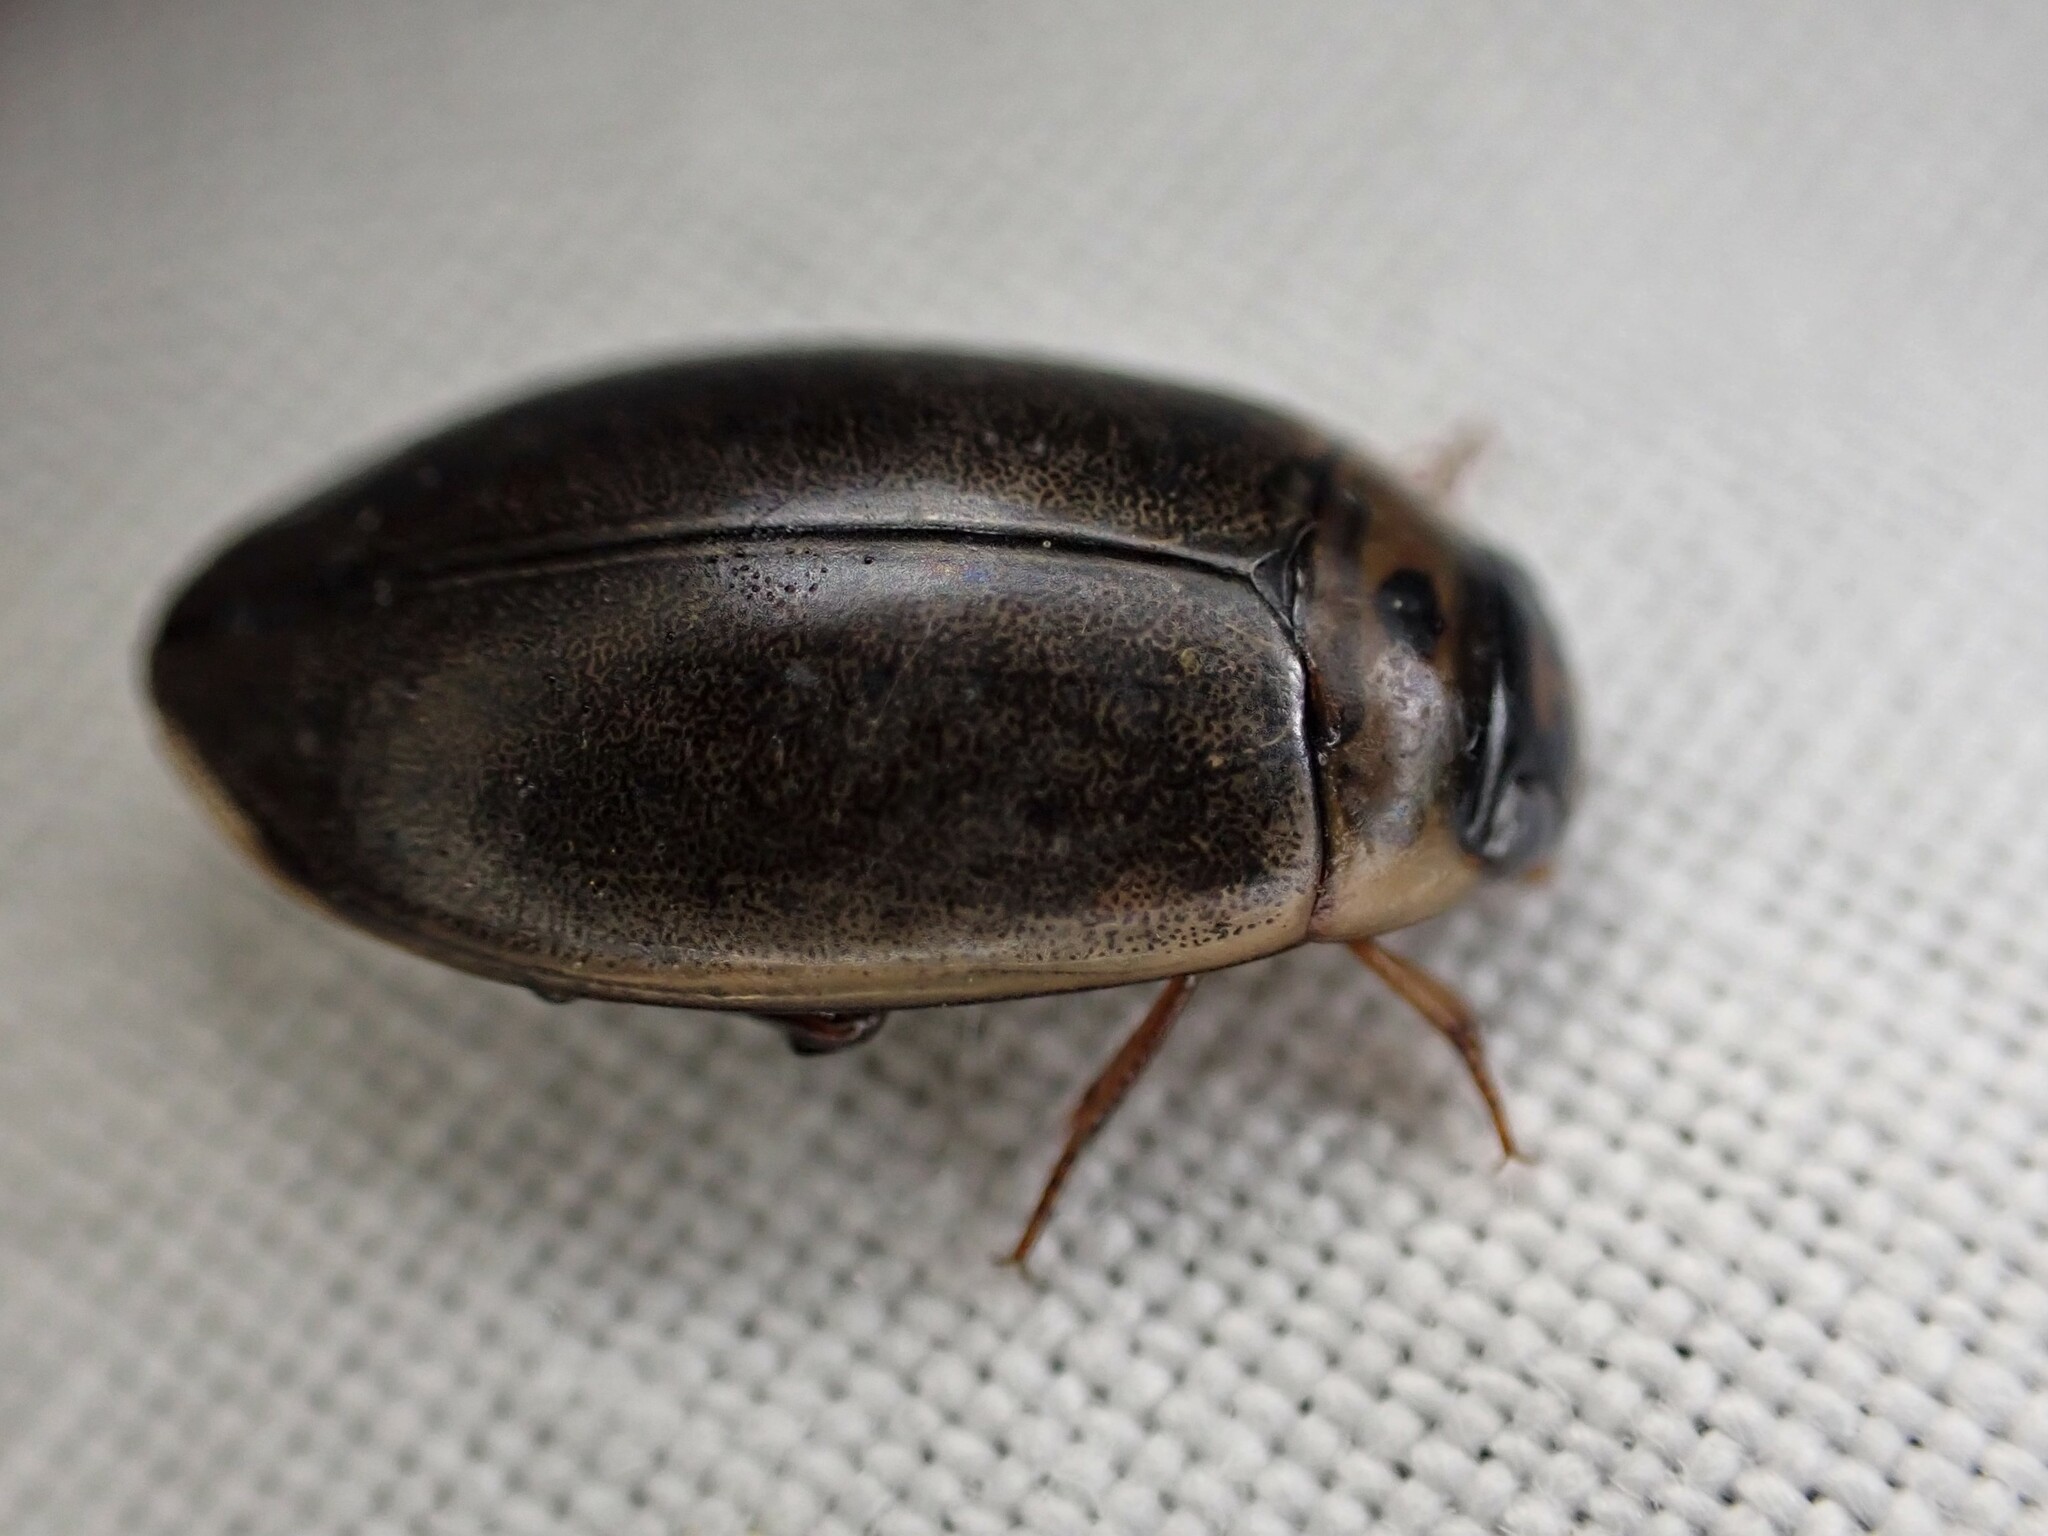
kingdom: Animalia
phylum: Arthropoda
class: Insecta
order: Coleoptera
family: Dytiscidae
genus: Rhantus
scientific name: Rhantus suturalis
